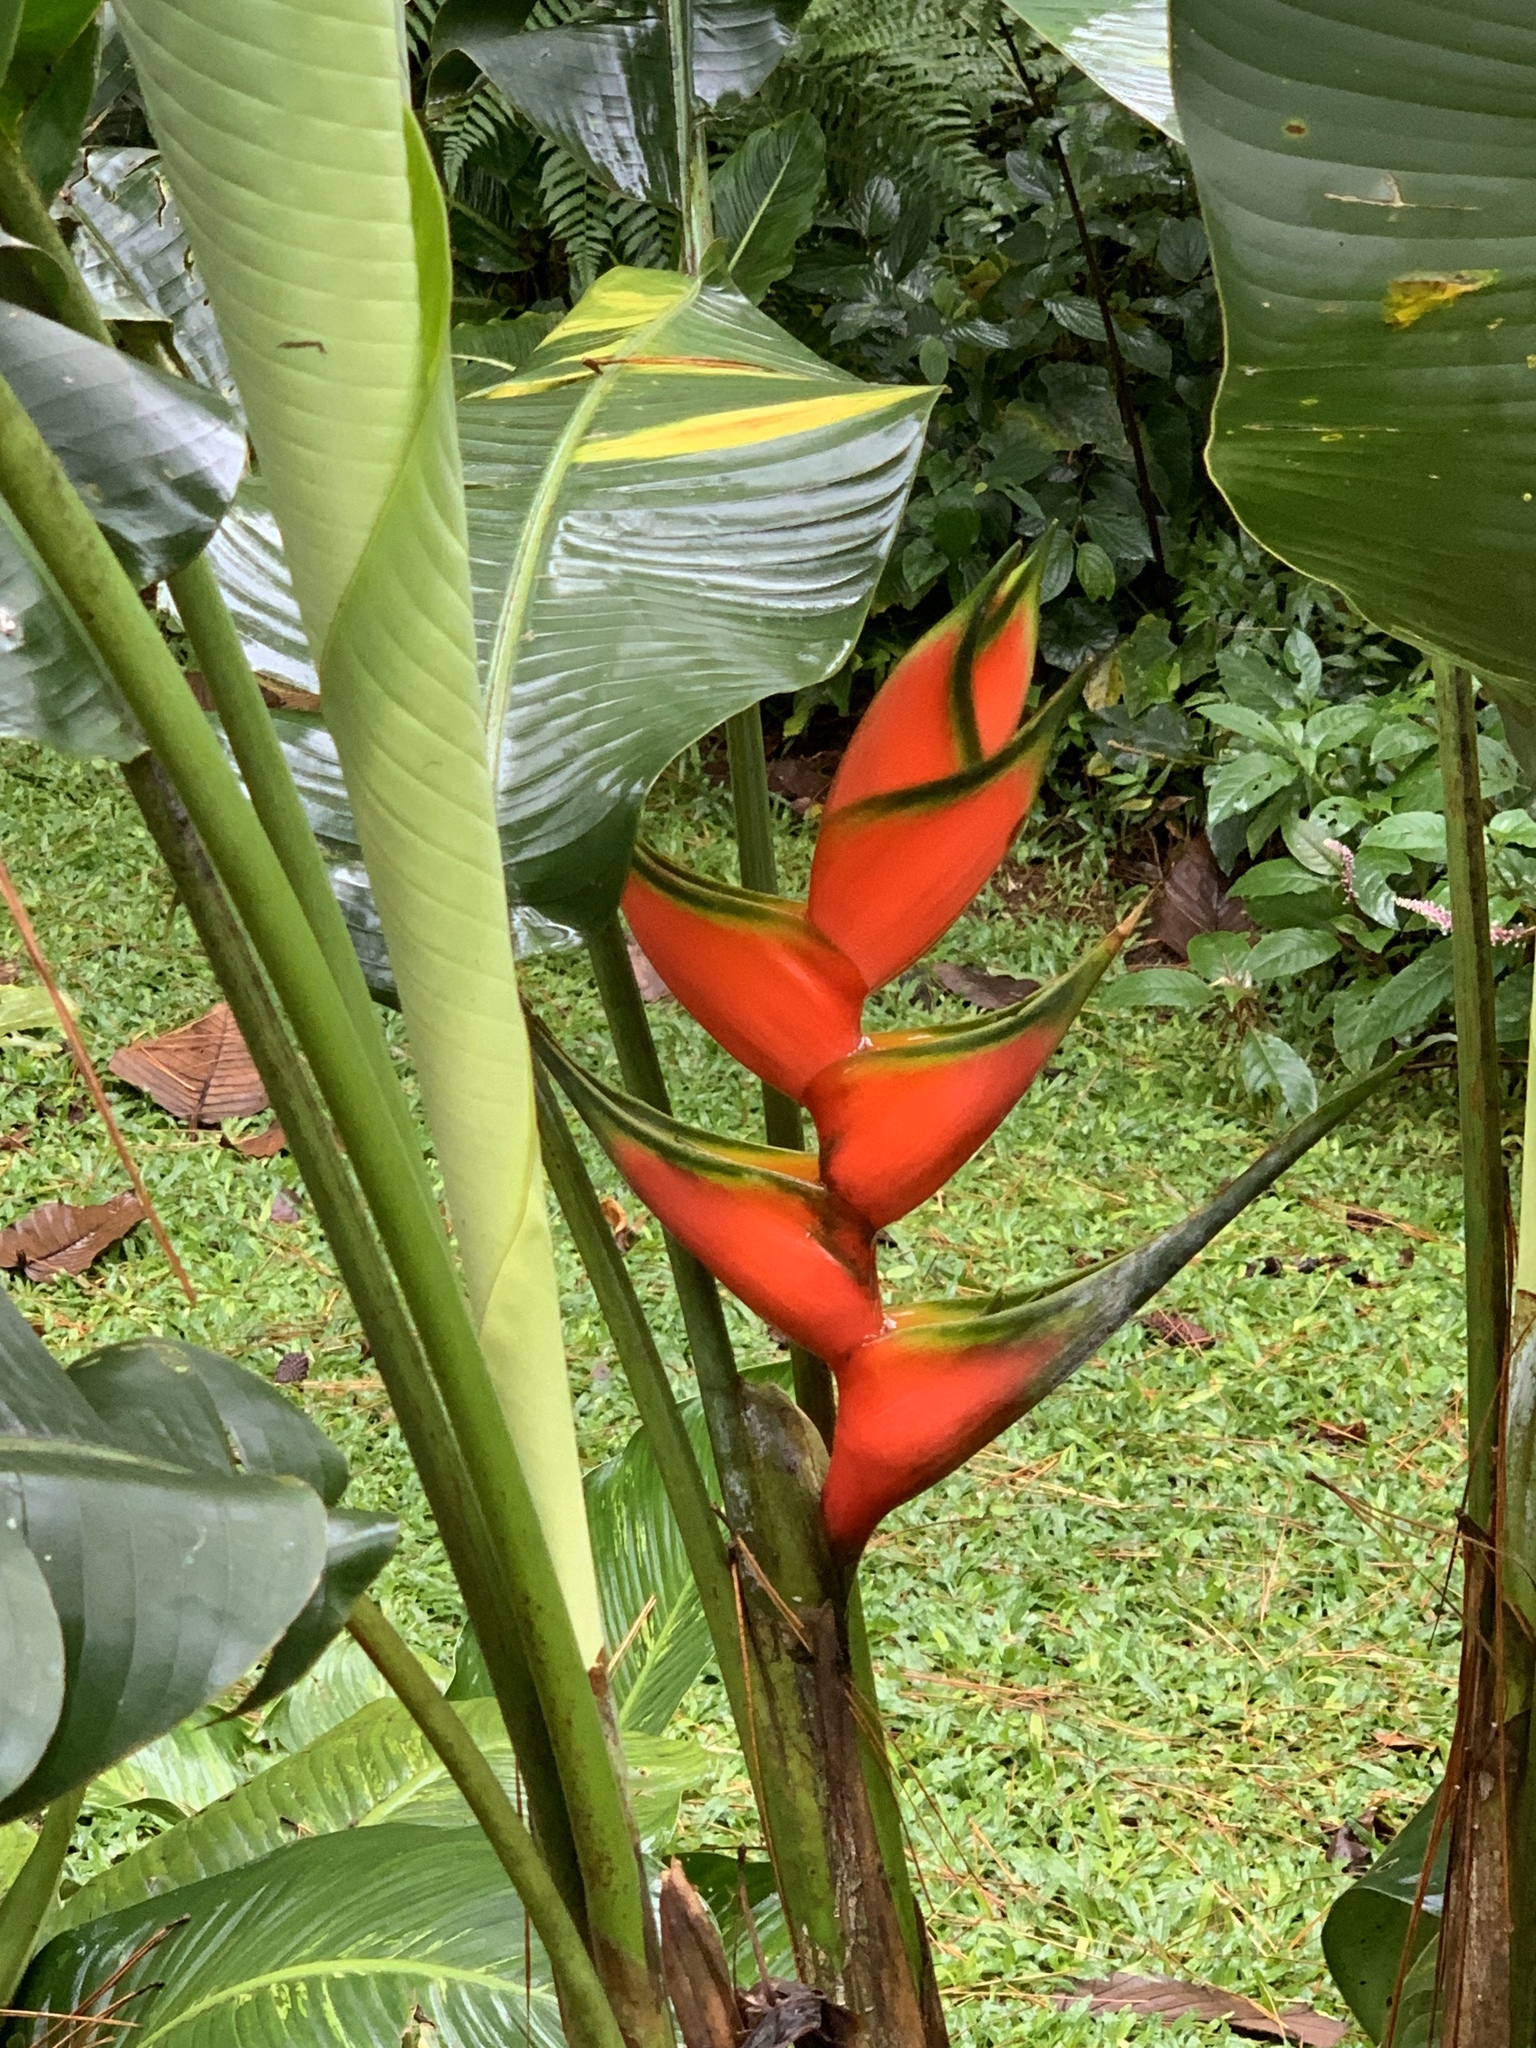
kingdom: Plantae
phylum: Tracheophyta
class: Liliopsida
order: Zingiberales
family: Heliconiaceae
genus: Heliconia
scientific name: Heliconia bihai
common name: Macaw flower
